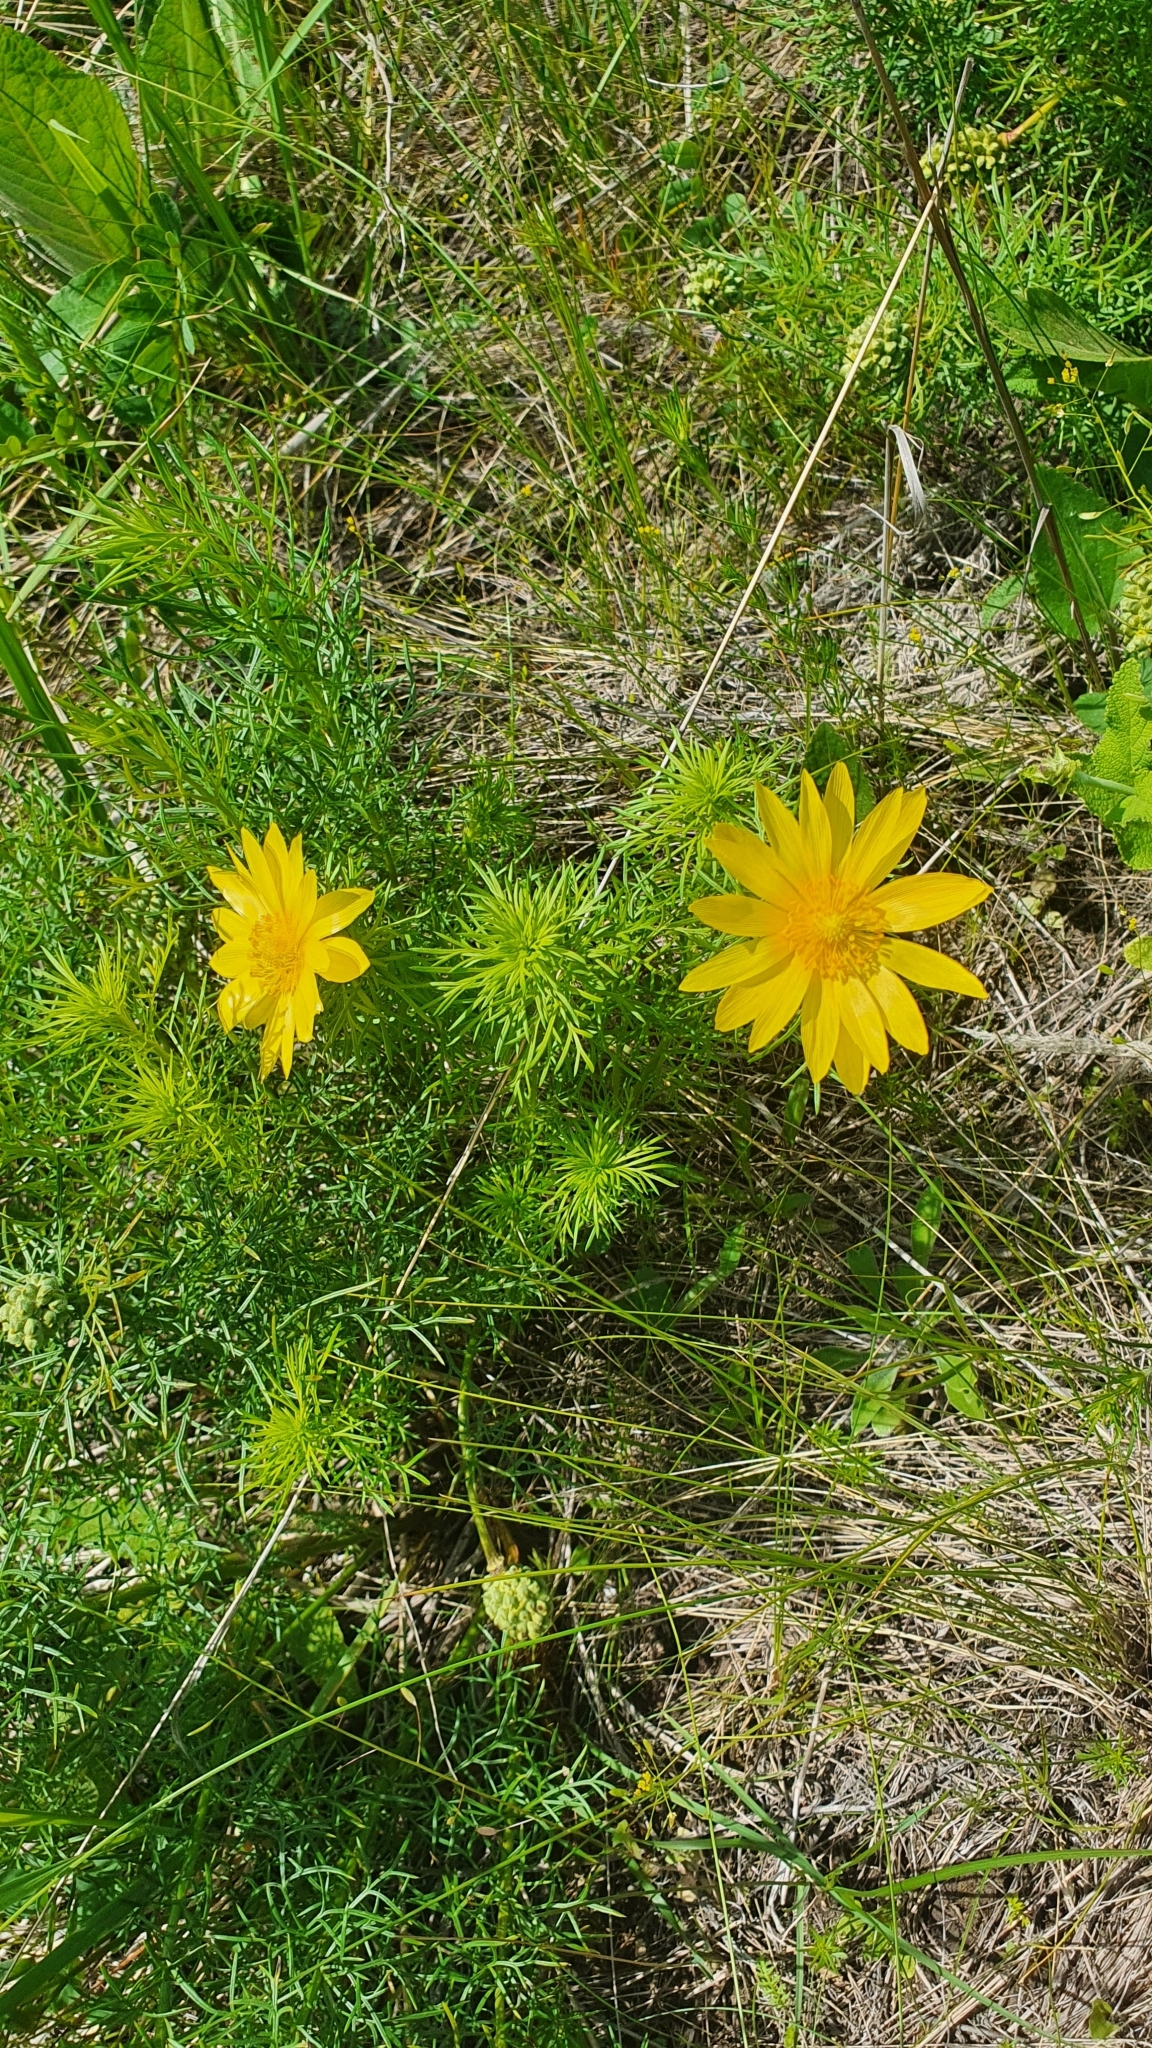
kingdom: Plantae
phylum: Tracheophyta
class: Magnoliopsida
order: Ranunculales
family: Ranunculaceae
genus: Adonis
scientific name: Adonis vernalis
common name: Yellow pheasants-eye
